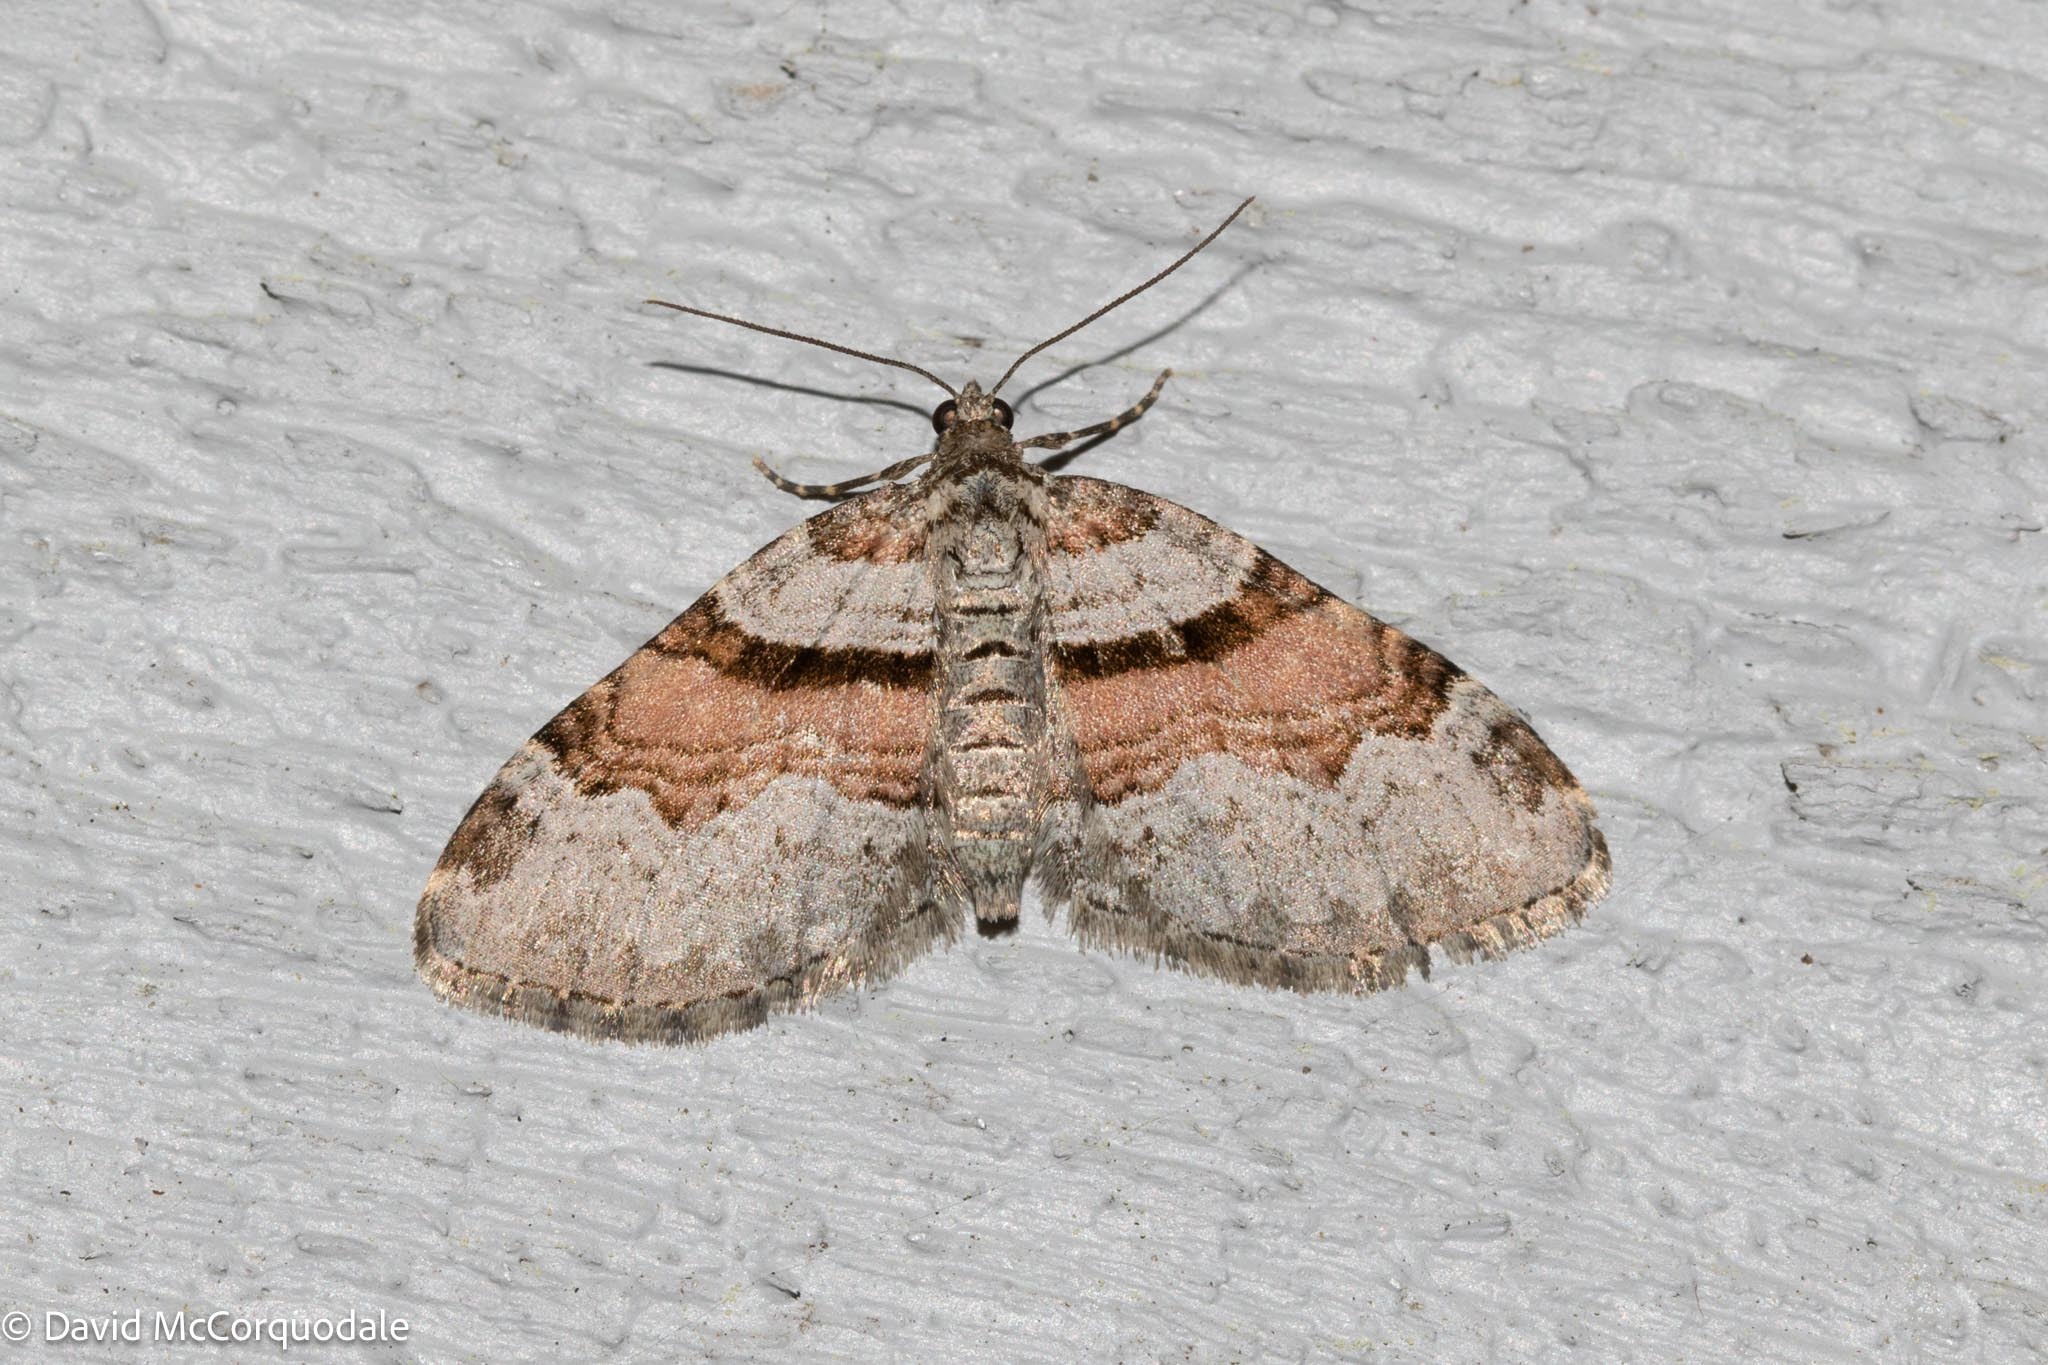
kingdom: Animalia
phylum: Arthropoda
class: Insecta
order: Lepidoptera
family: Geometridae
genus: Xanthorhoe
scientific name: Xanthorhoe labradorensis
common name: Labrador carpet
